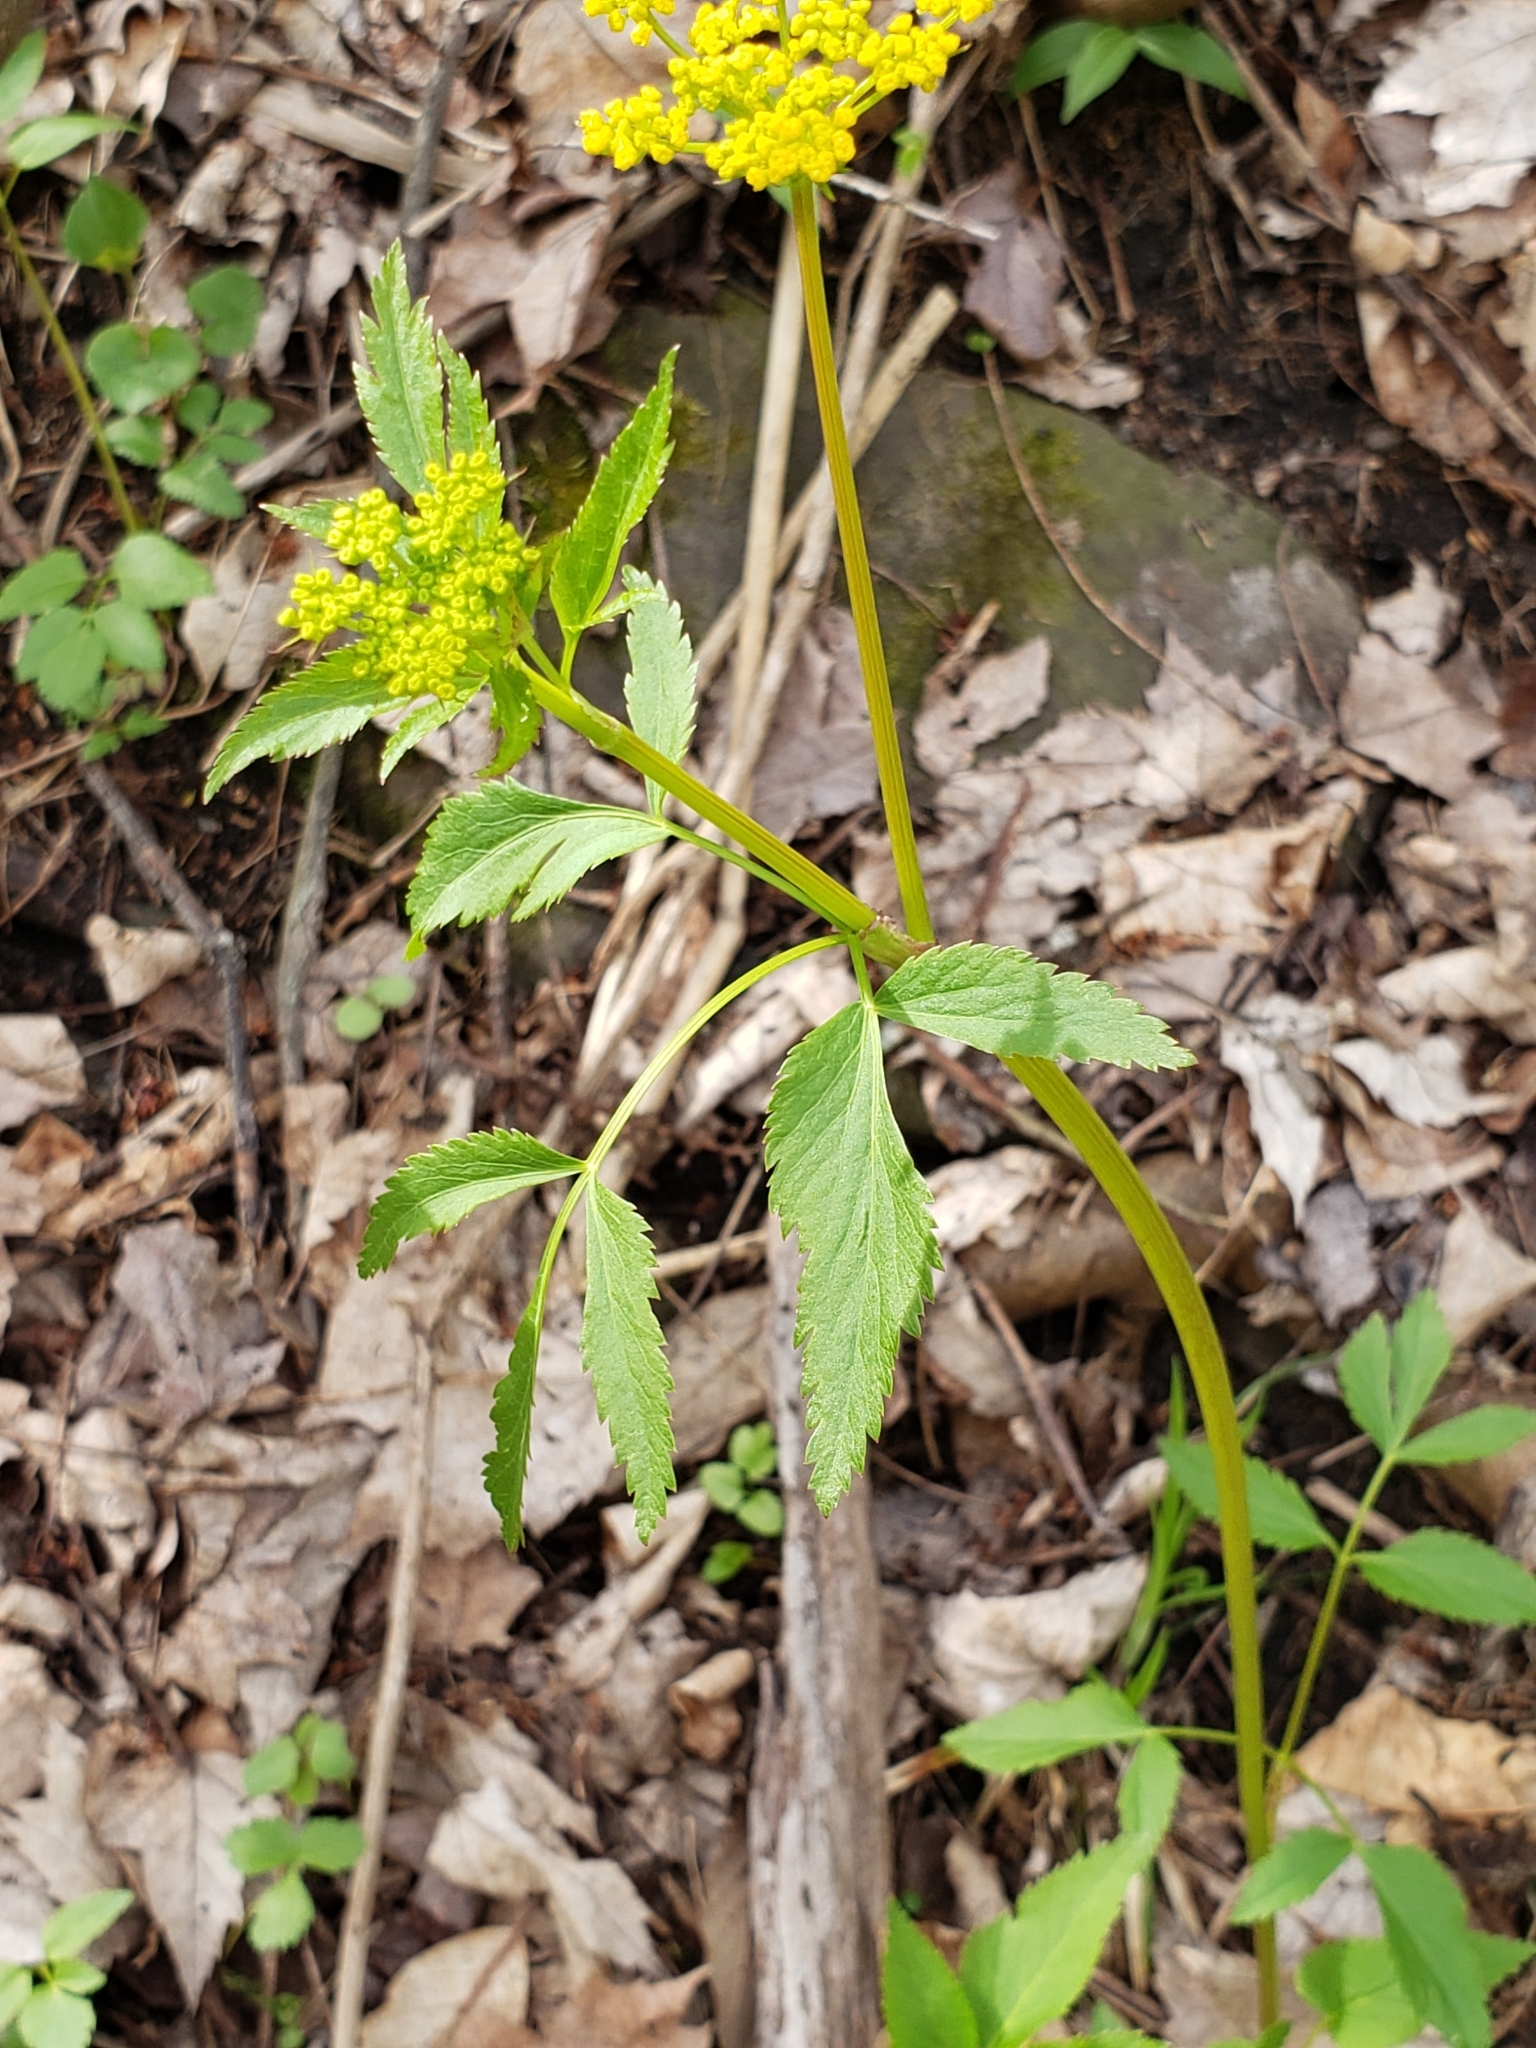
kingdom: Plantae
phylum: Tracheophyta
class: Magnoliopsida
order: Apiales
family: Apiaceae
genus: Zizia
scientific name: Zizia aurea
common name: Golden alexanders
